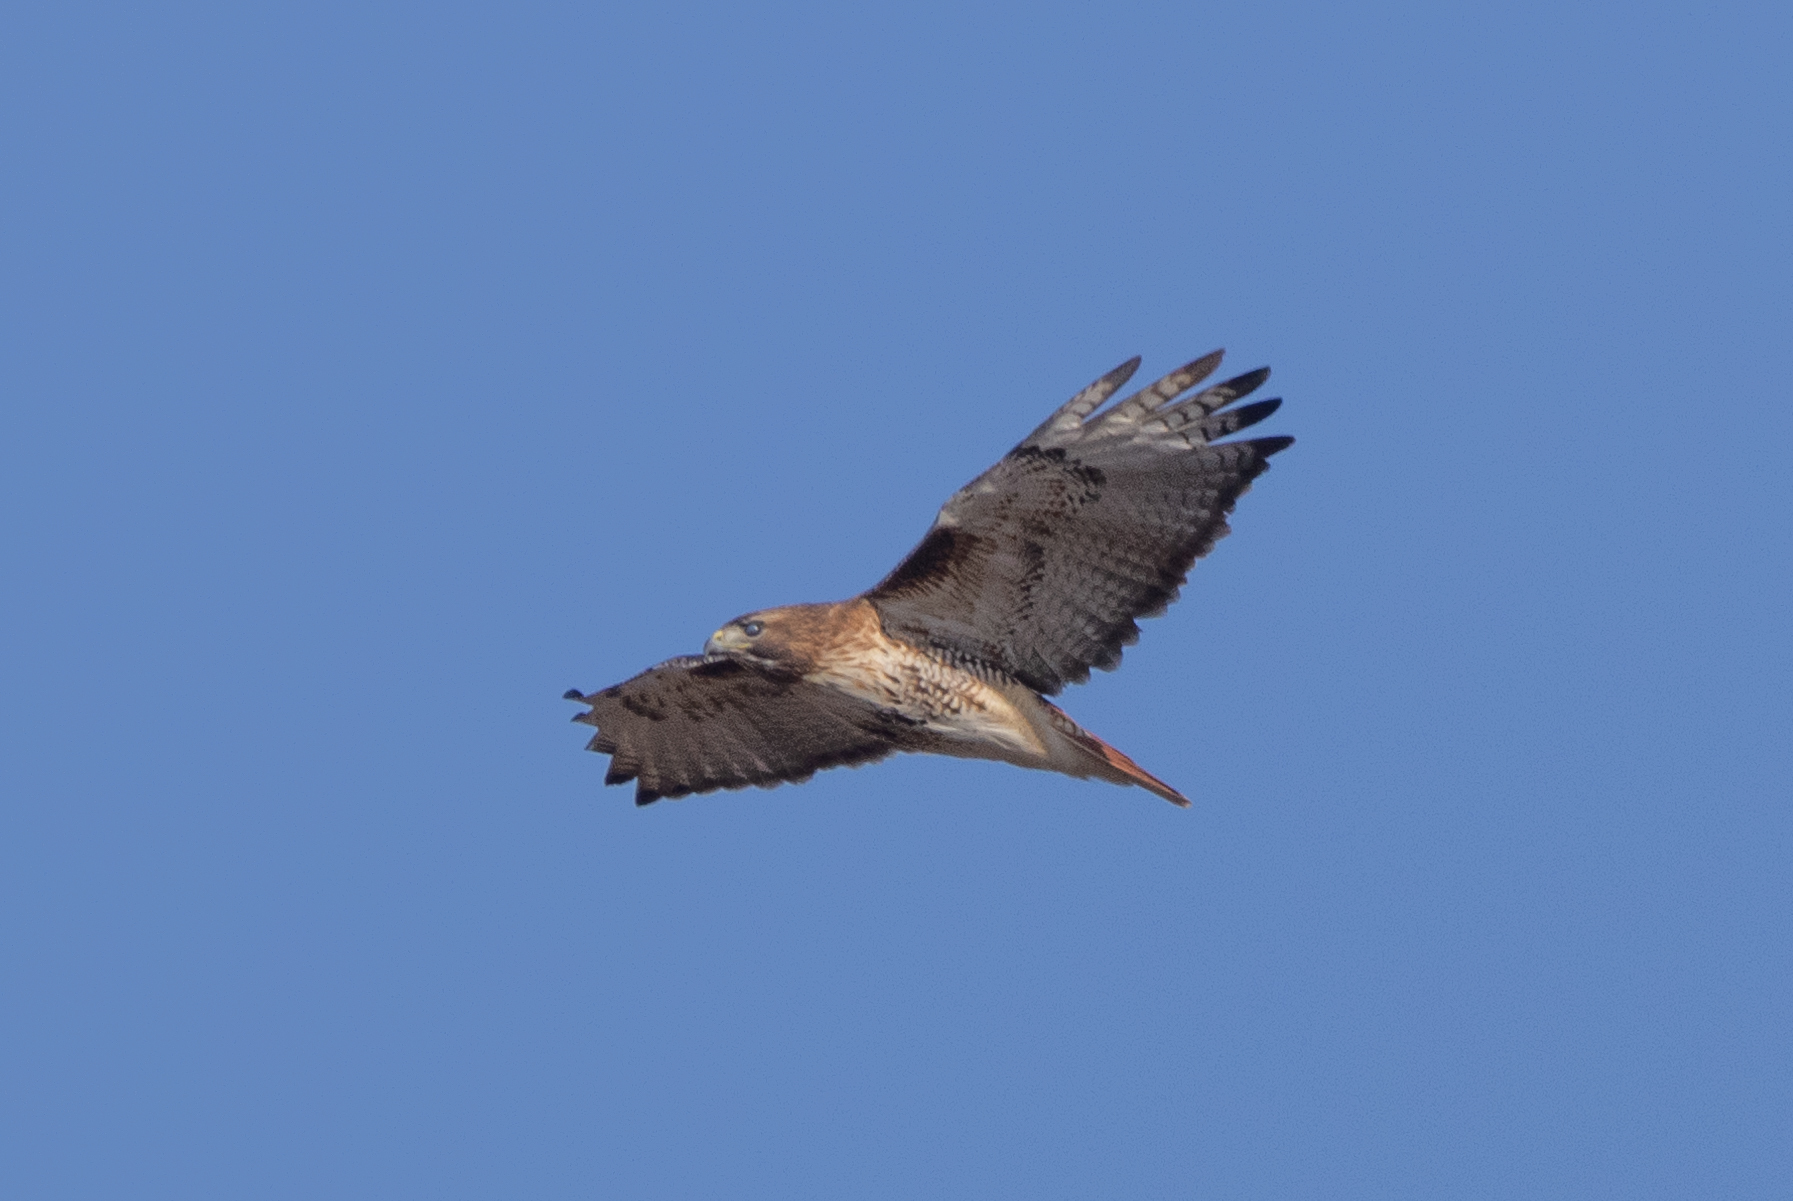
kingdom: Animalia
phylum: Chordata
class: Aves
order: Accipitriformes
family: Accipitridae
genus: Buteo
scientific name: Buteo jamaicensis
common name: Red-tailed hawk
